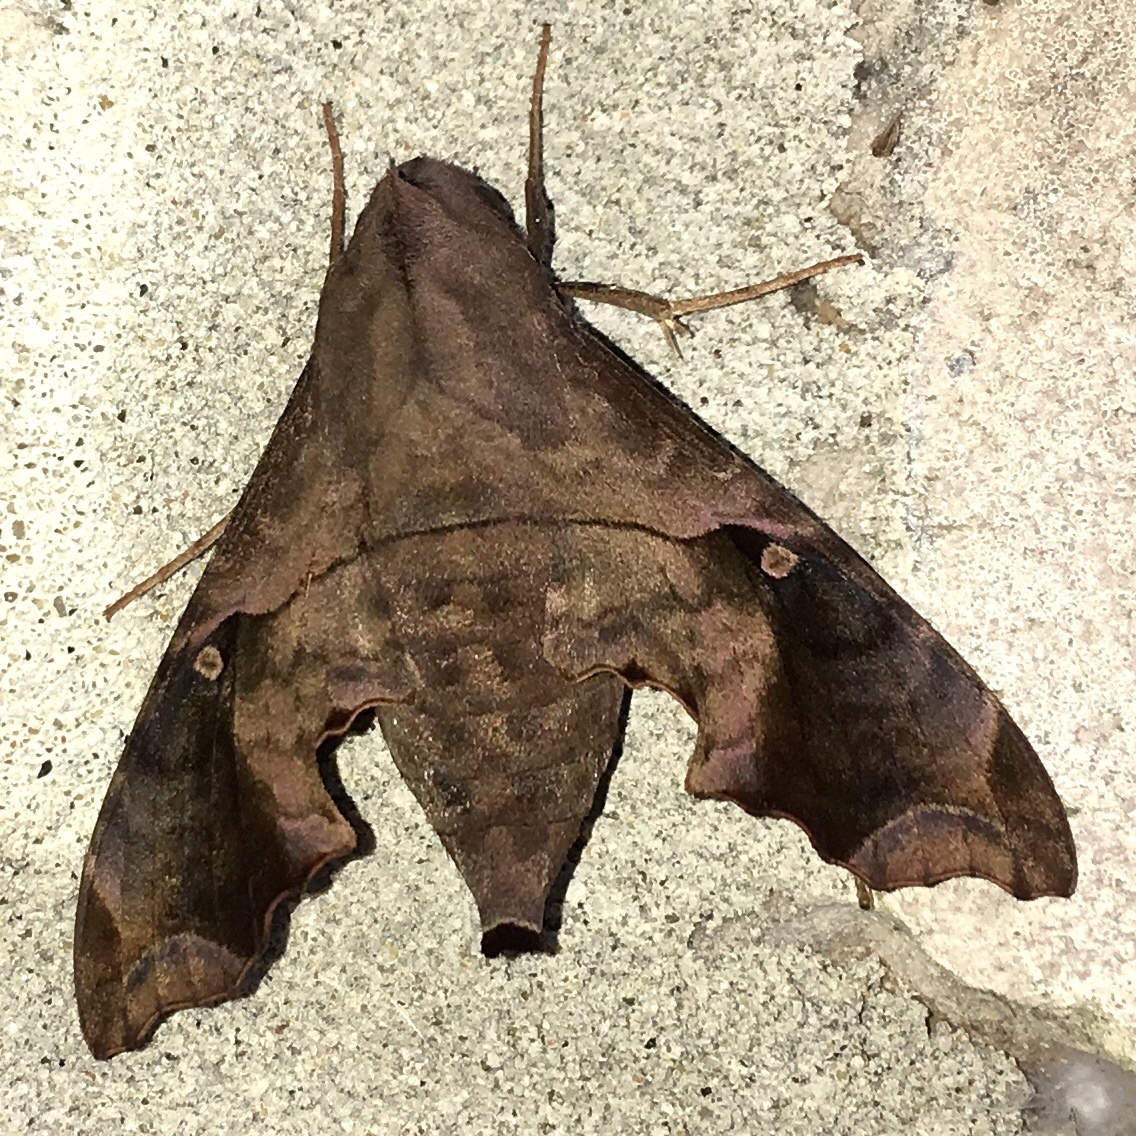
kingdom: Animalia
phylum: Arthropoda
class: Insecta
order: Lepidoptera
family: Sphingidae
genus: Enyo
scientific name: Enyo lugubris
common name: Mournful sphinx
